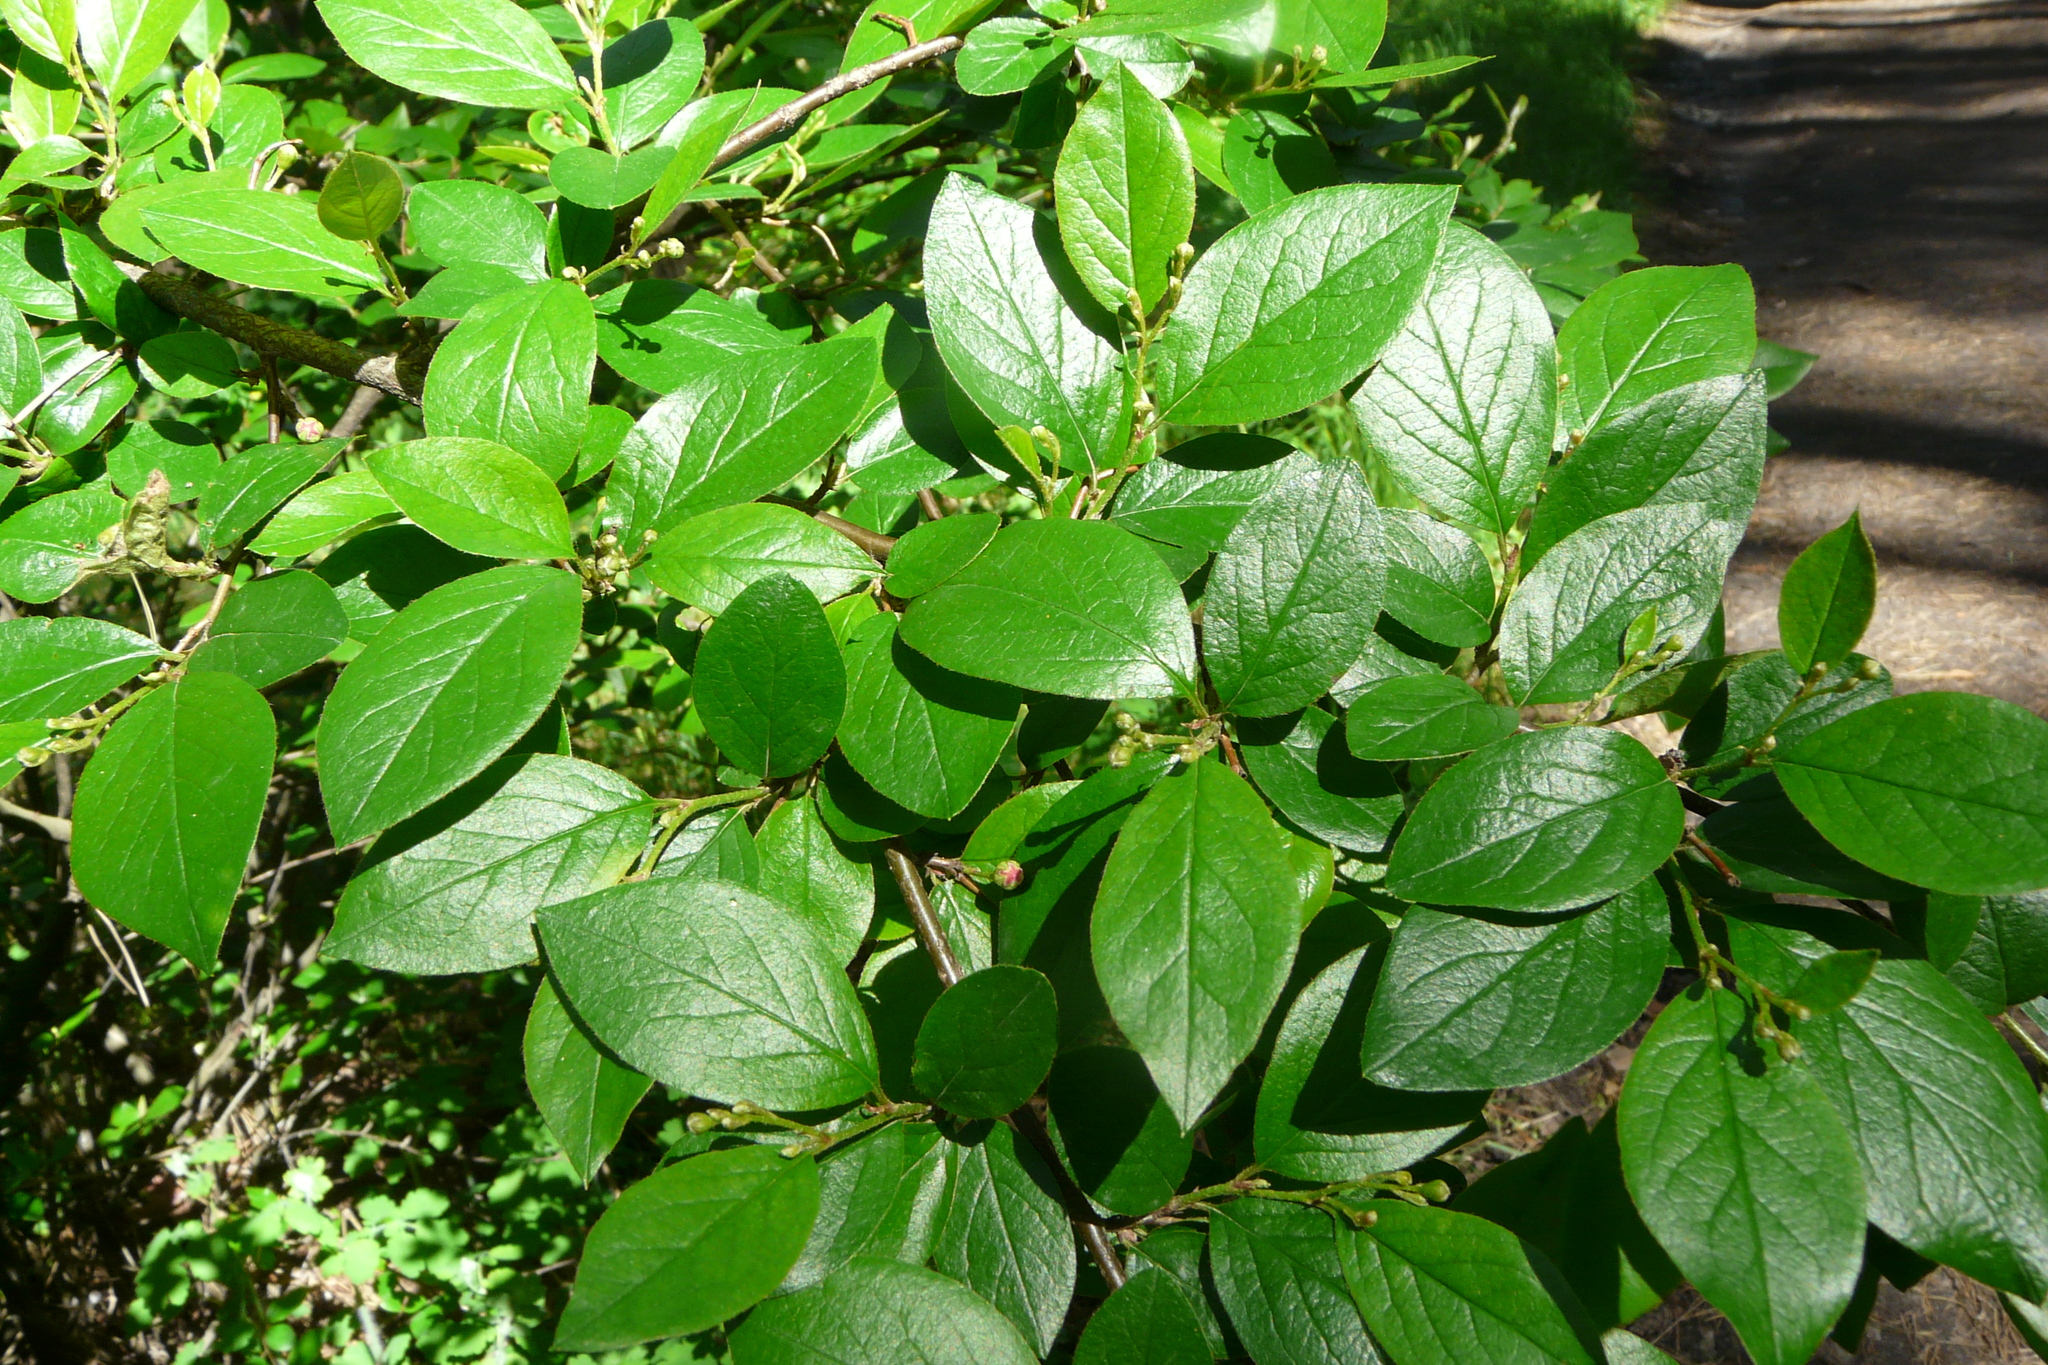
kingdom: Plantae
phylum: Tracheophyta
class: Magnoliopsida
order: Rosales
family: Rosaceae
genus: Cotoneaster
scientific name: Cotoneaster acutifolius
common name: Peking cotoneaster
